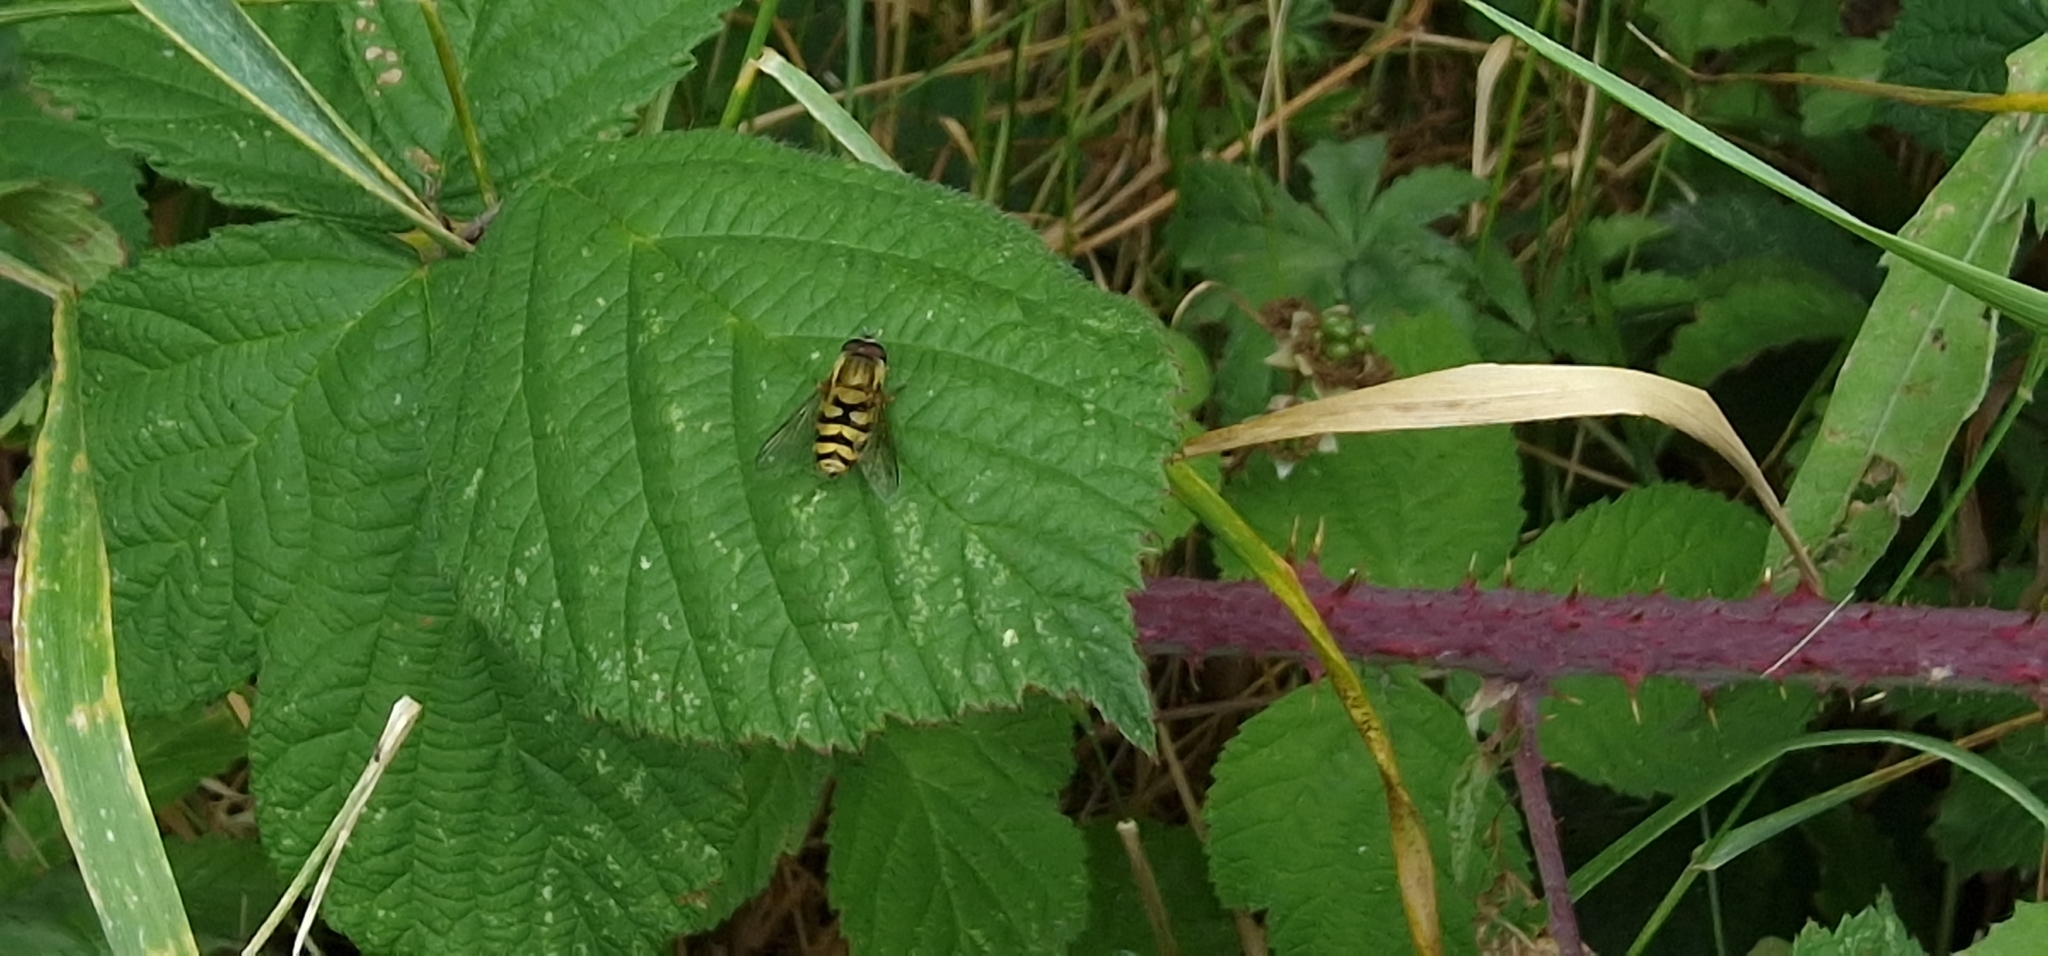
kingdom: Animalia
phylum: Arthropoda
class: Insecta
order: Diptera
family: Syrphidae
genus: Syrphus
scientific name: Syrphus
